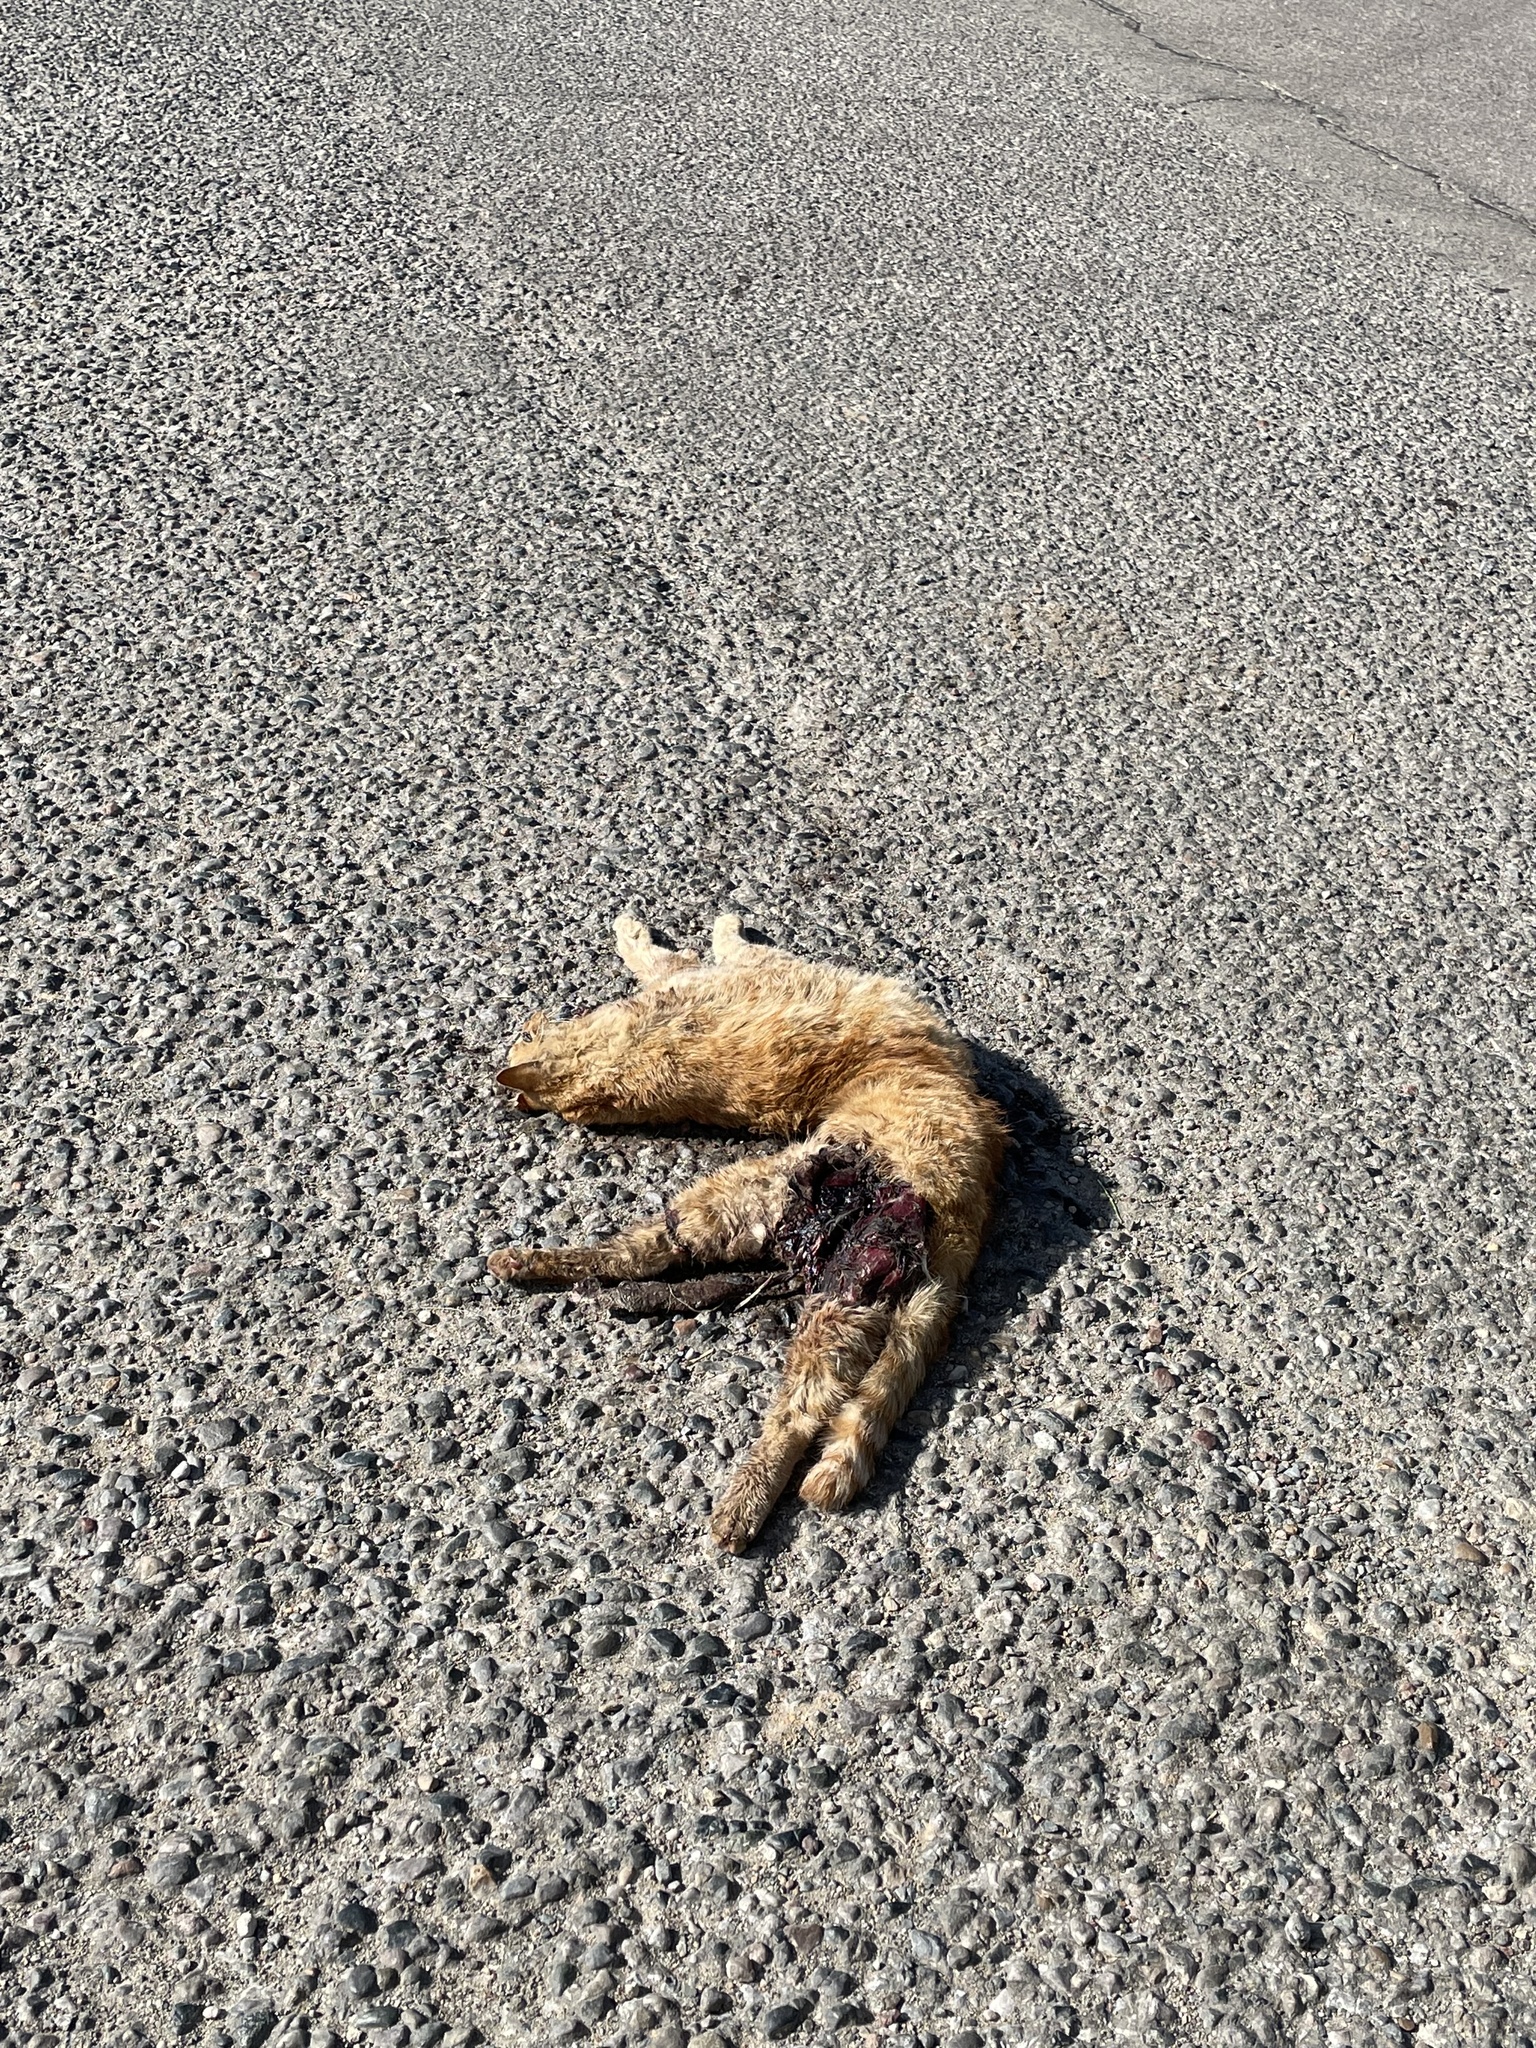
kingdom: Animalia
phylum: Chordata
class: Mammalia
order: Carnivora
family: Felidae
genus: Felis
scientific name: Felis catus
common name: Domestic cat
